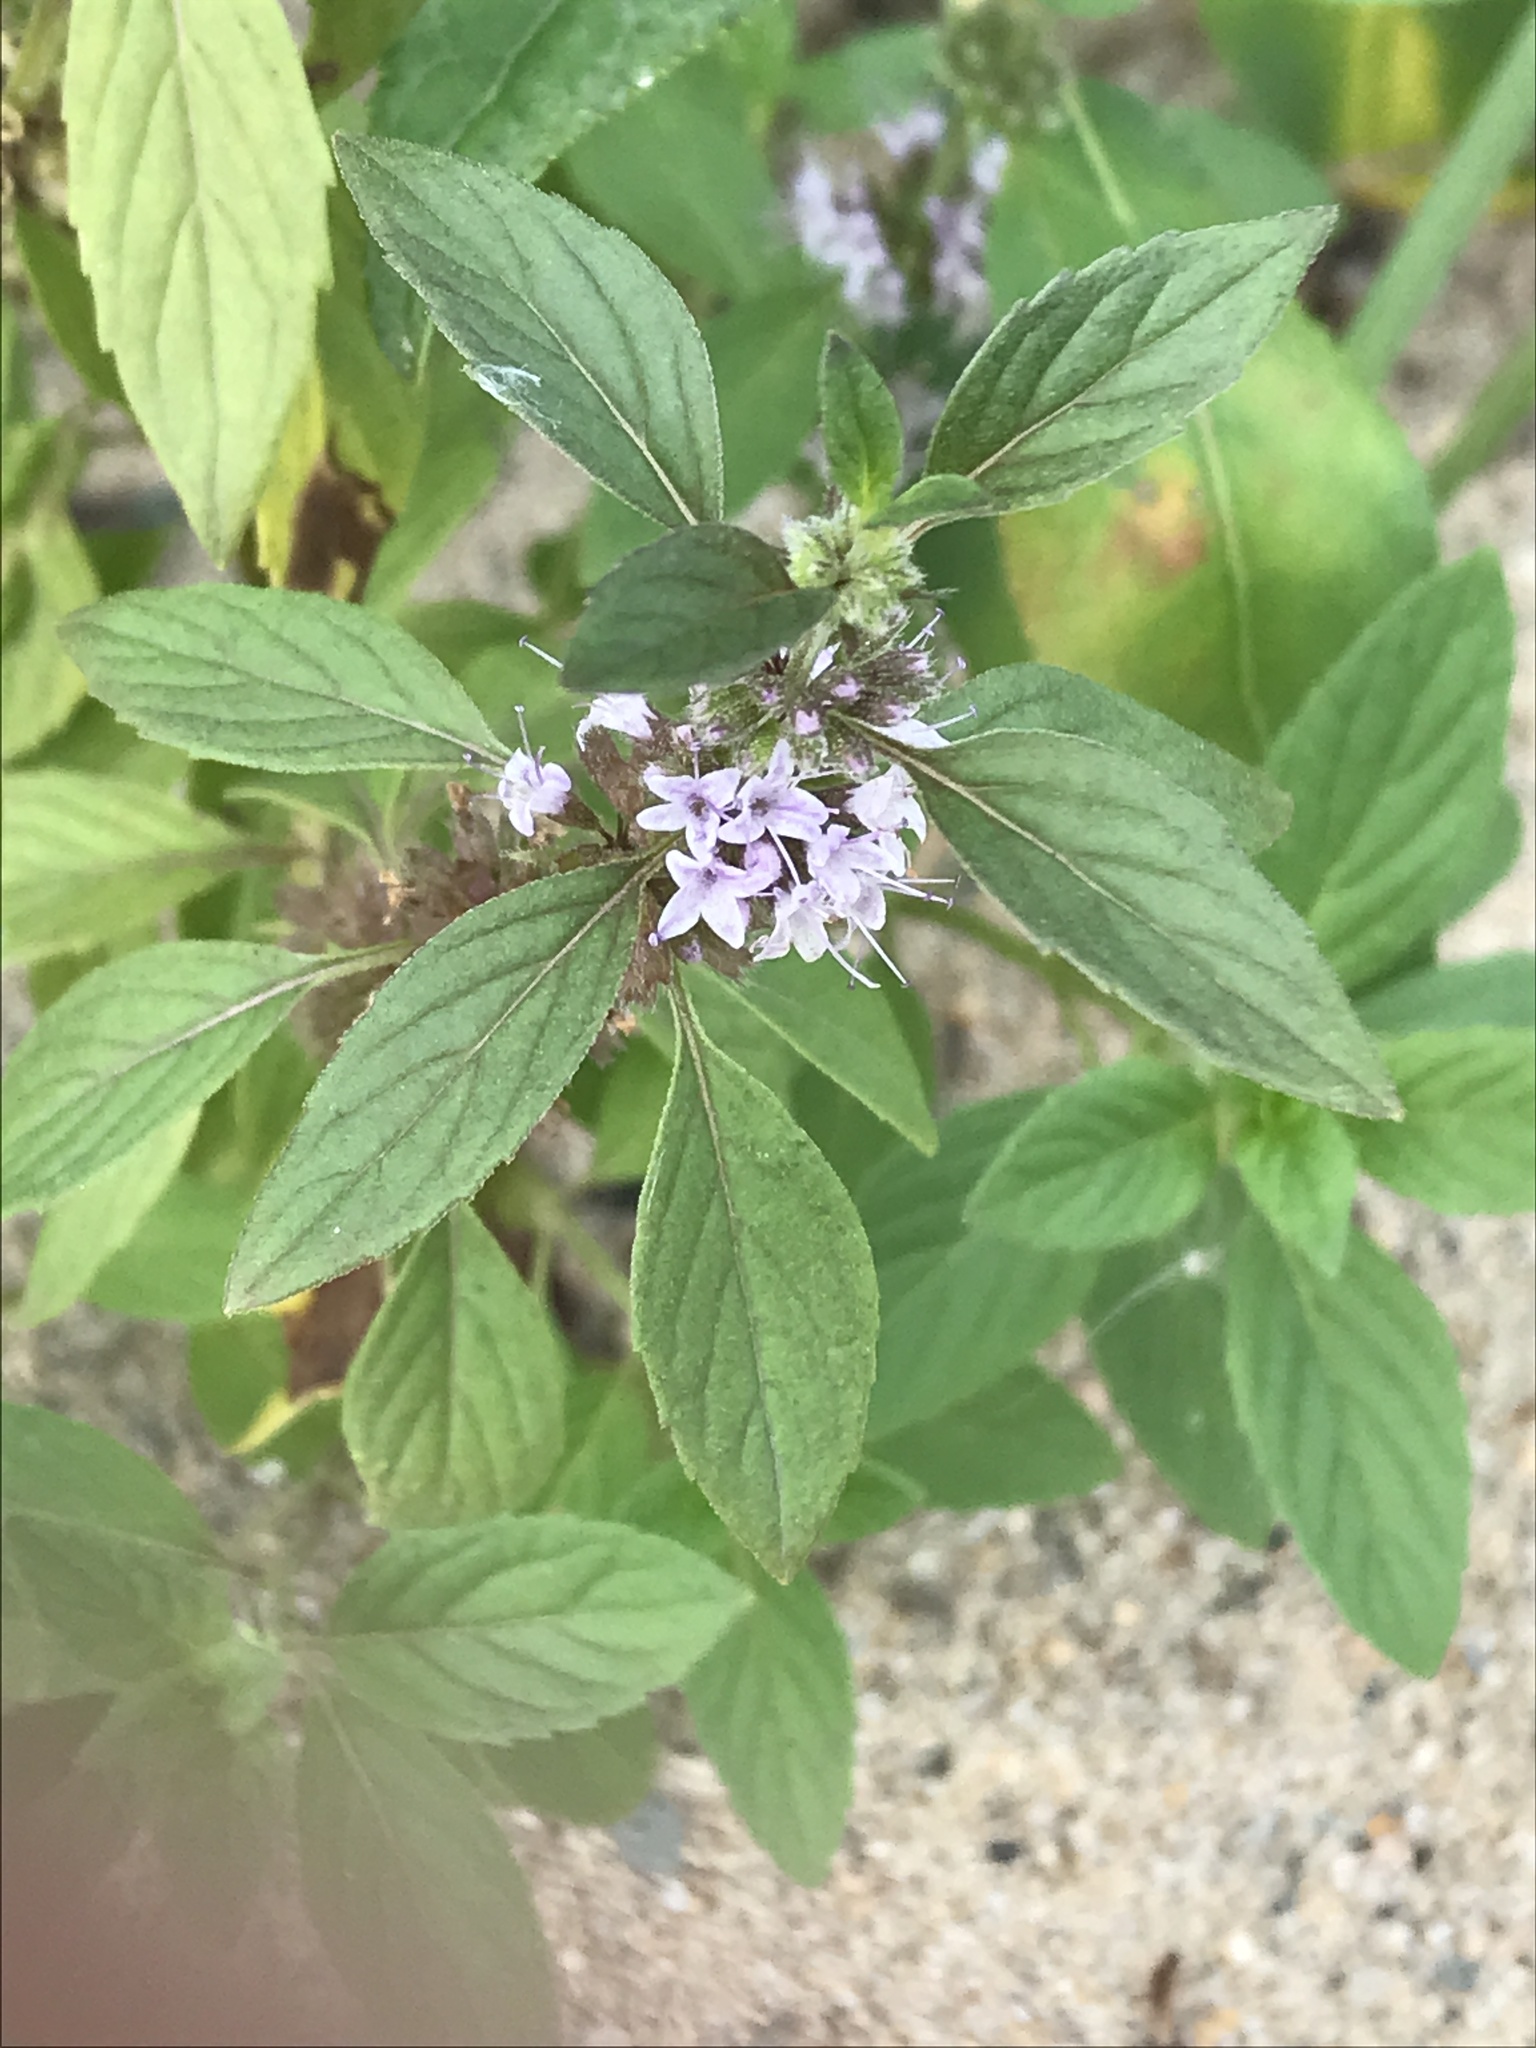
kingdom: Plantae
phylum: Tracheophyta
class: Magnoliopsida
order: Lamiales
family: Lamiaceae
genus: Mentha
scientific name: Mentha canadensis
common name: American corn mint
